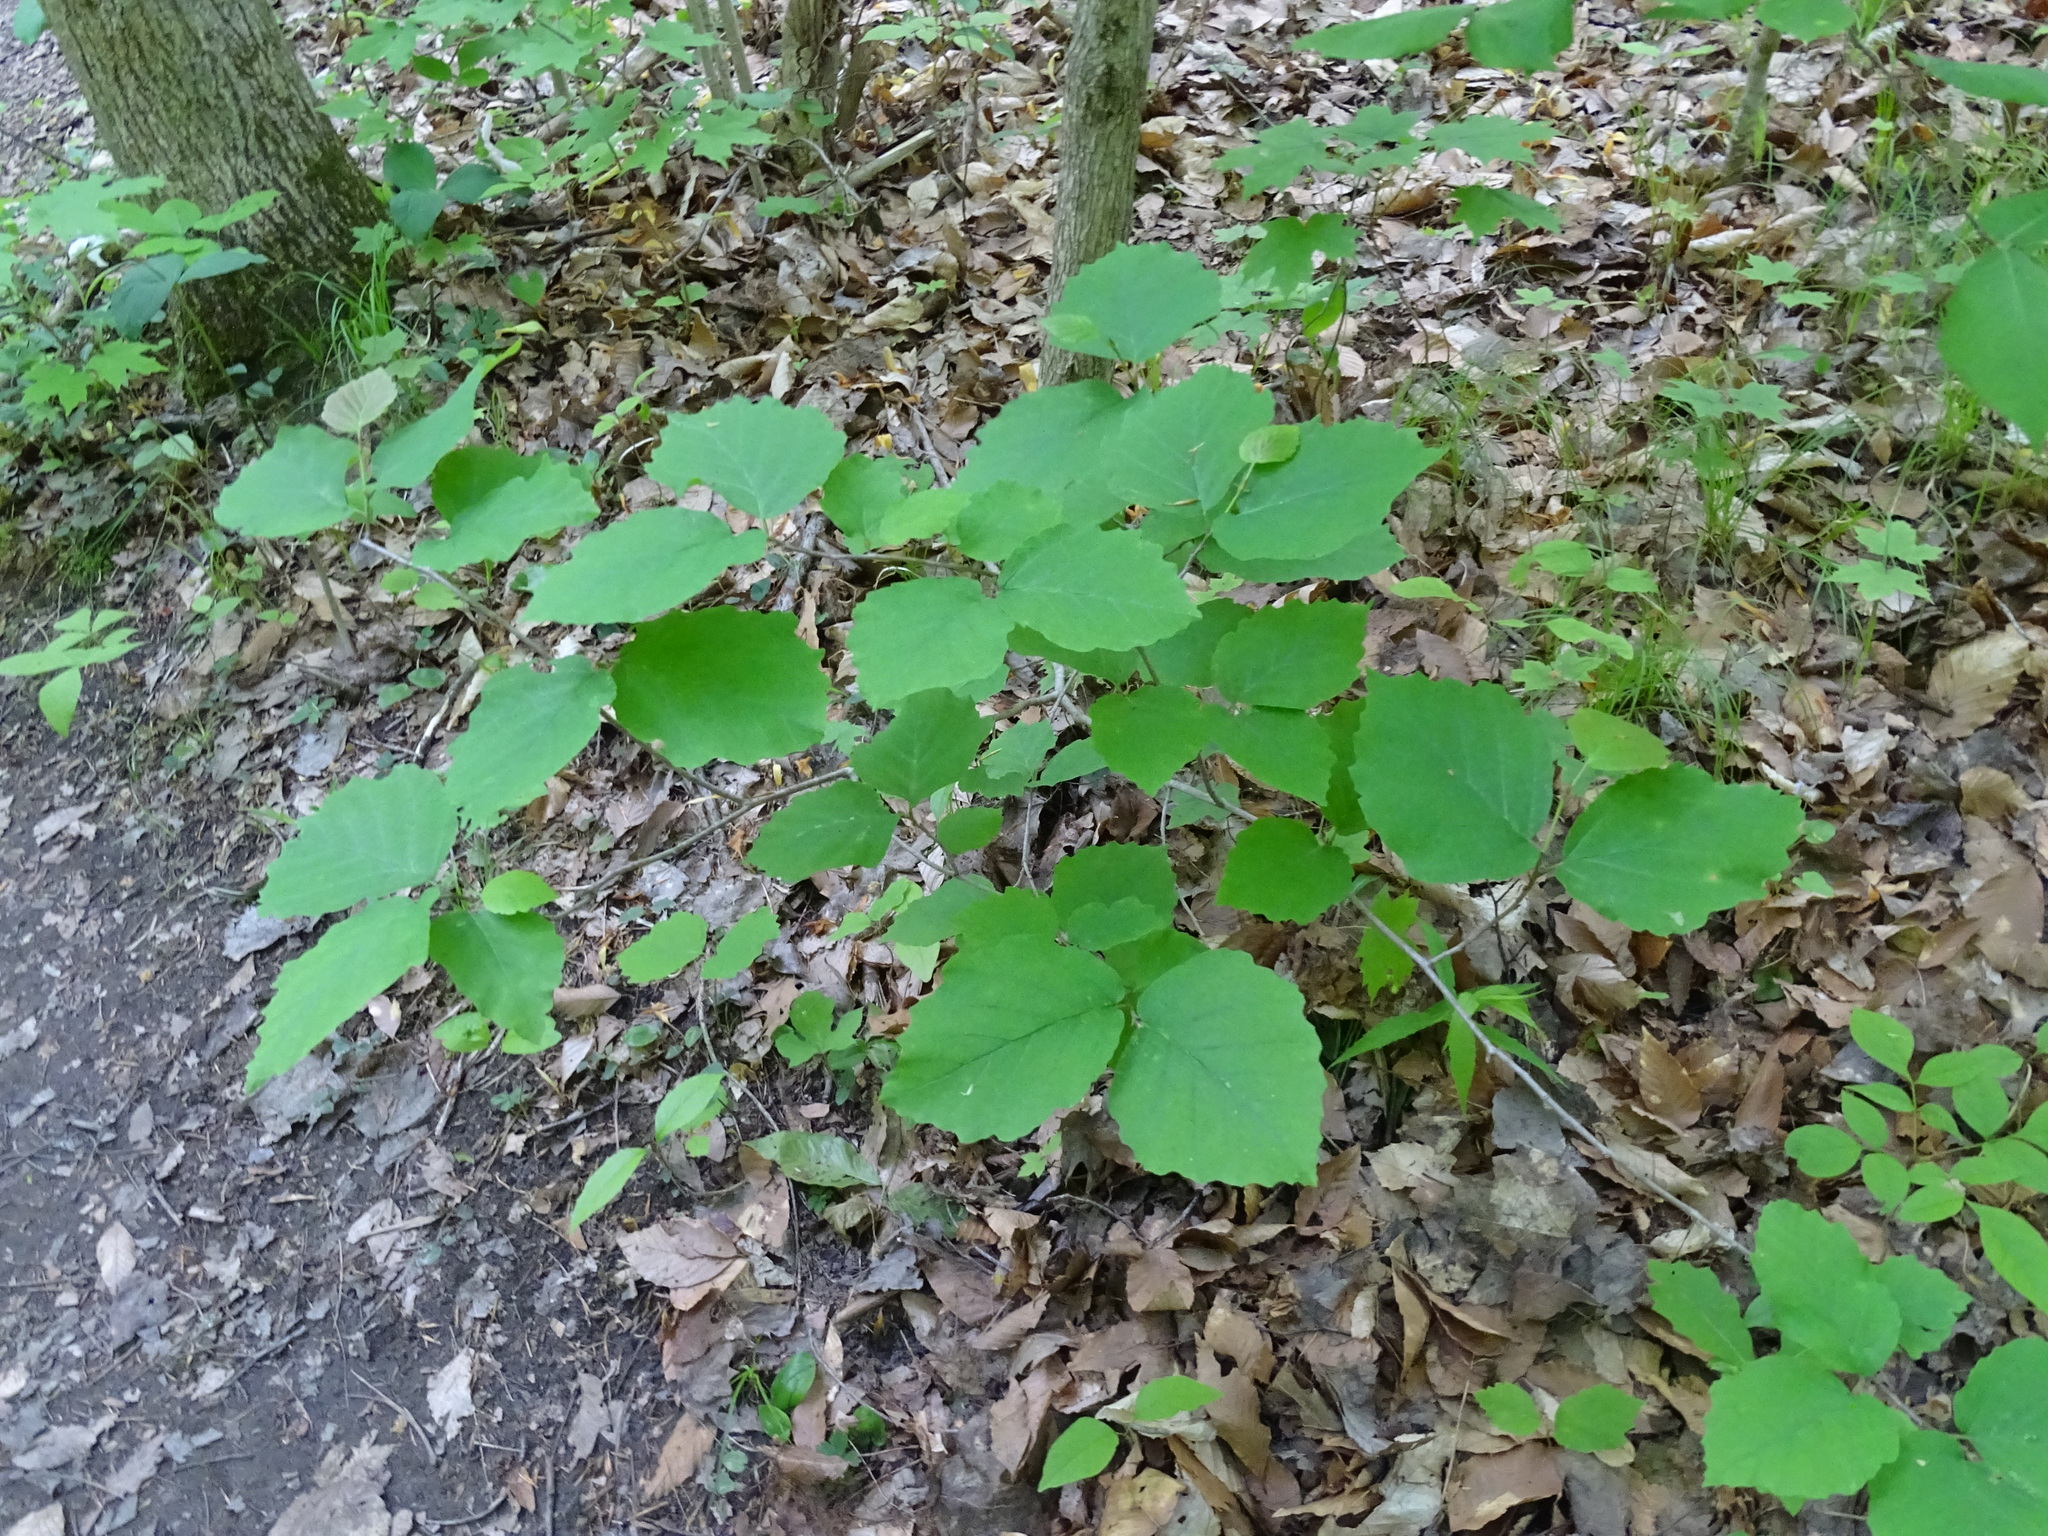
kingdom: Plantae
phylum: Tracheophyta
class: Magnoliopsida
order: Saxifragales
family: Hamamelidaceae
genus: Hamamelis
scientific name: Hamamelis virginiana
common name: Witch-hazel
